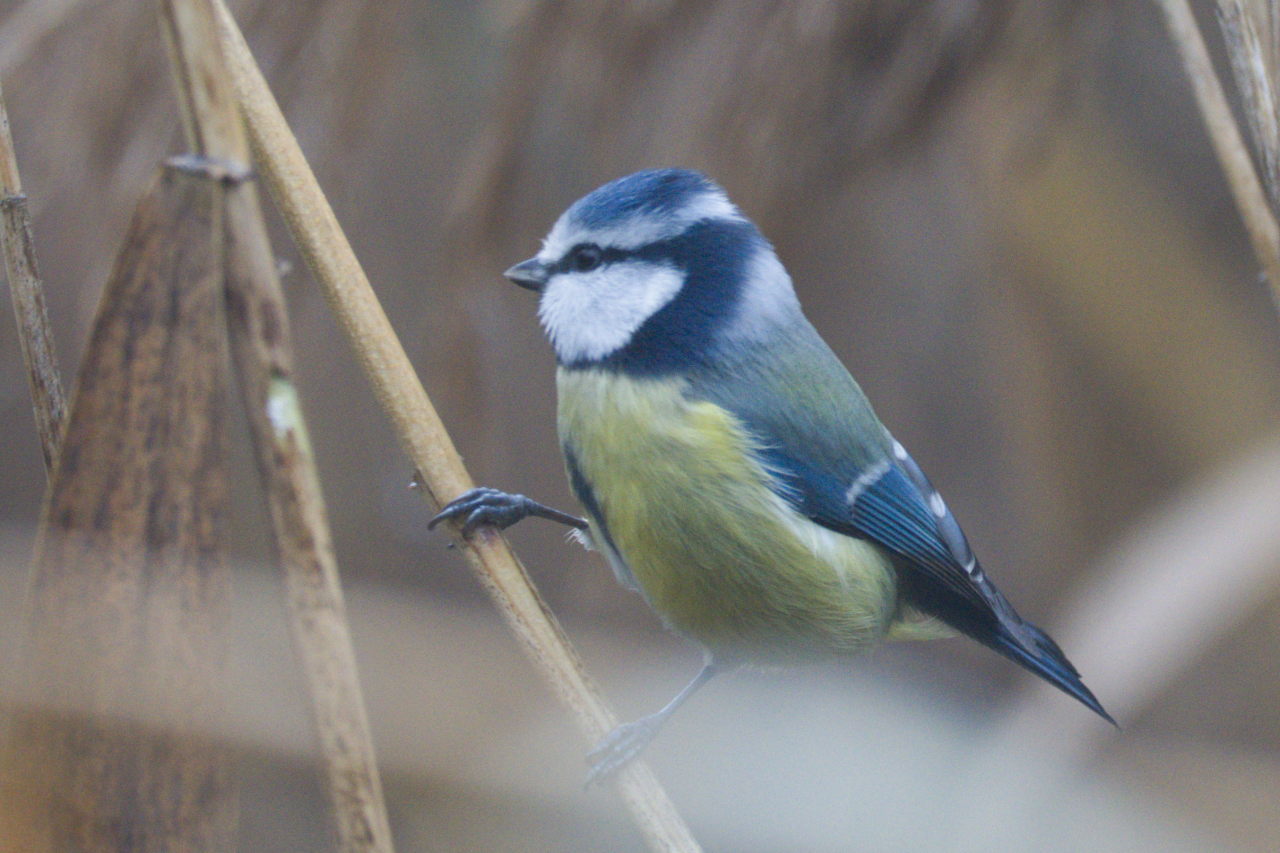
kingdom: Animalia
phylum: Chordata
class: Aves
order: Passeriformes
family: Paridae
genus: Cyanistes
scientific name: Cyanistes caeruleus
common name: Eurasian blue tit
